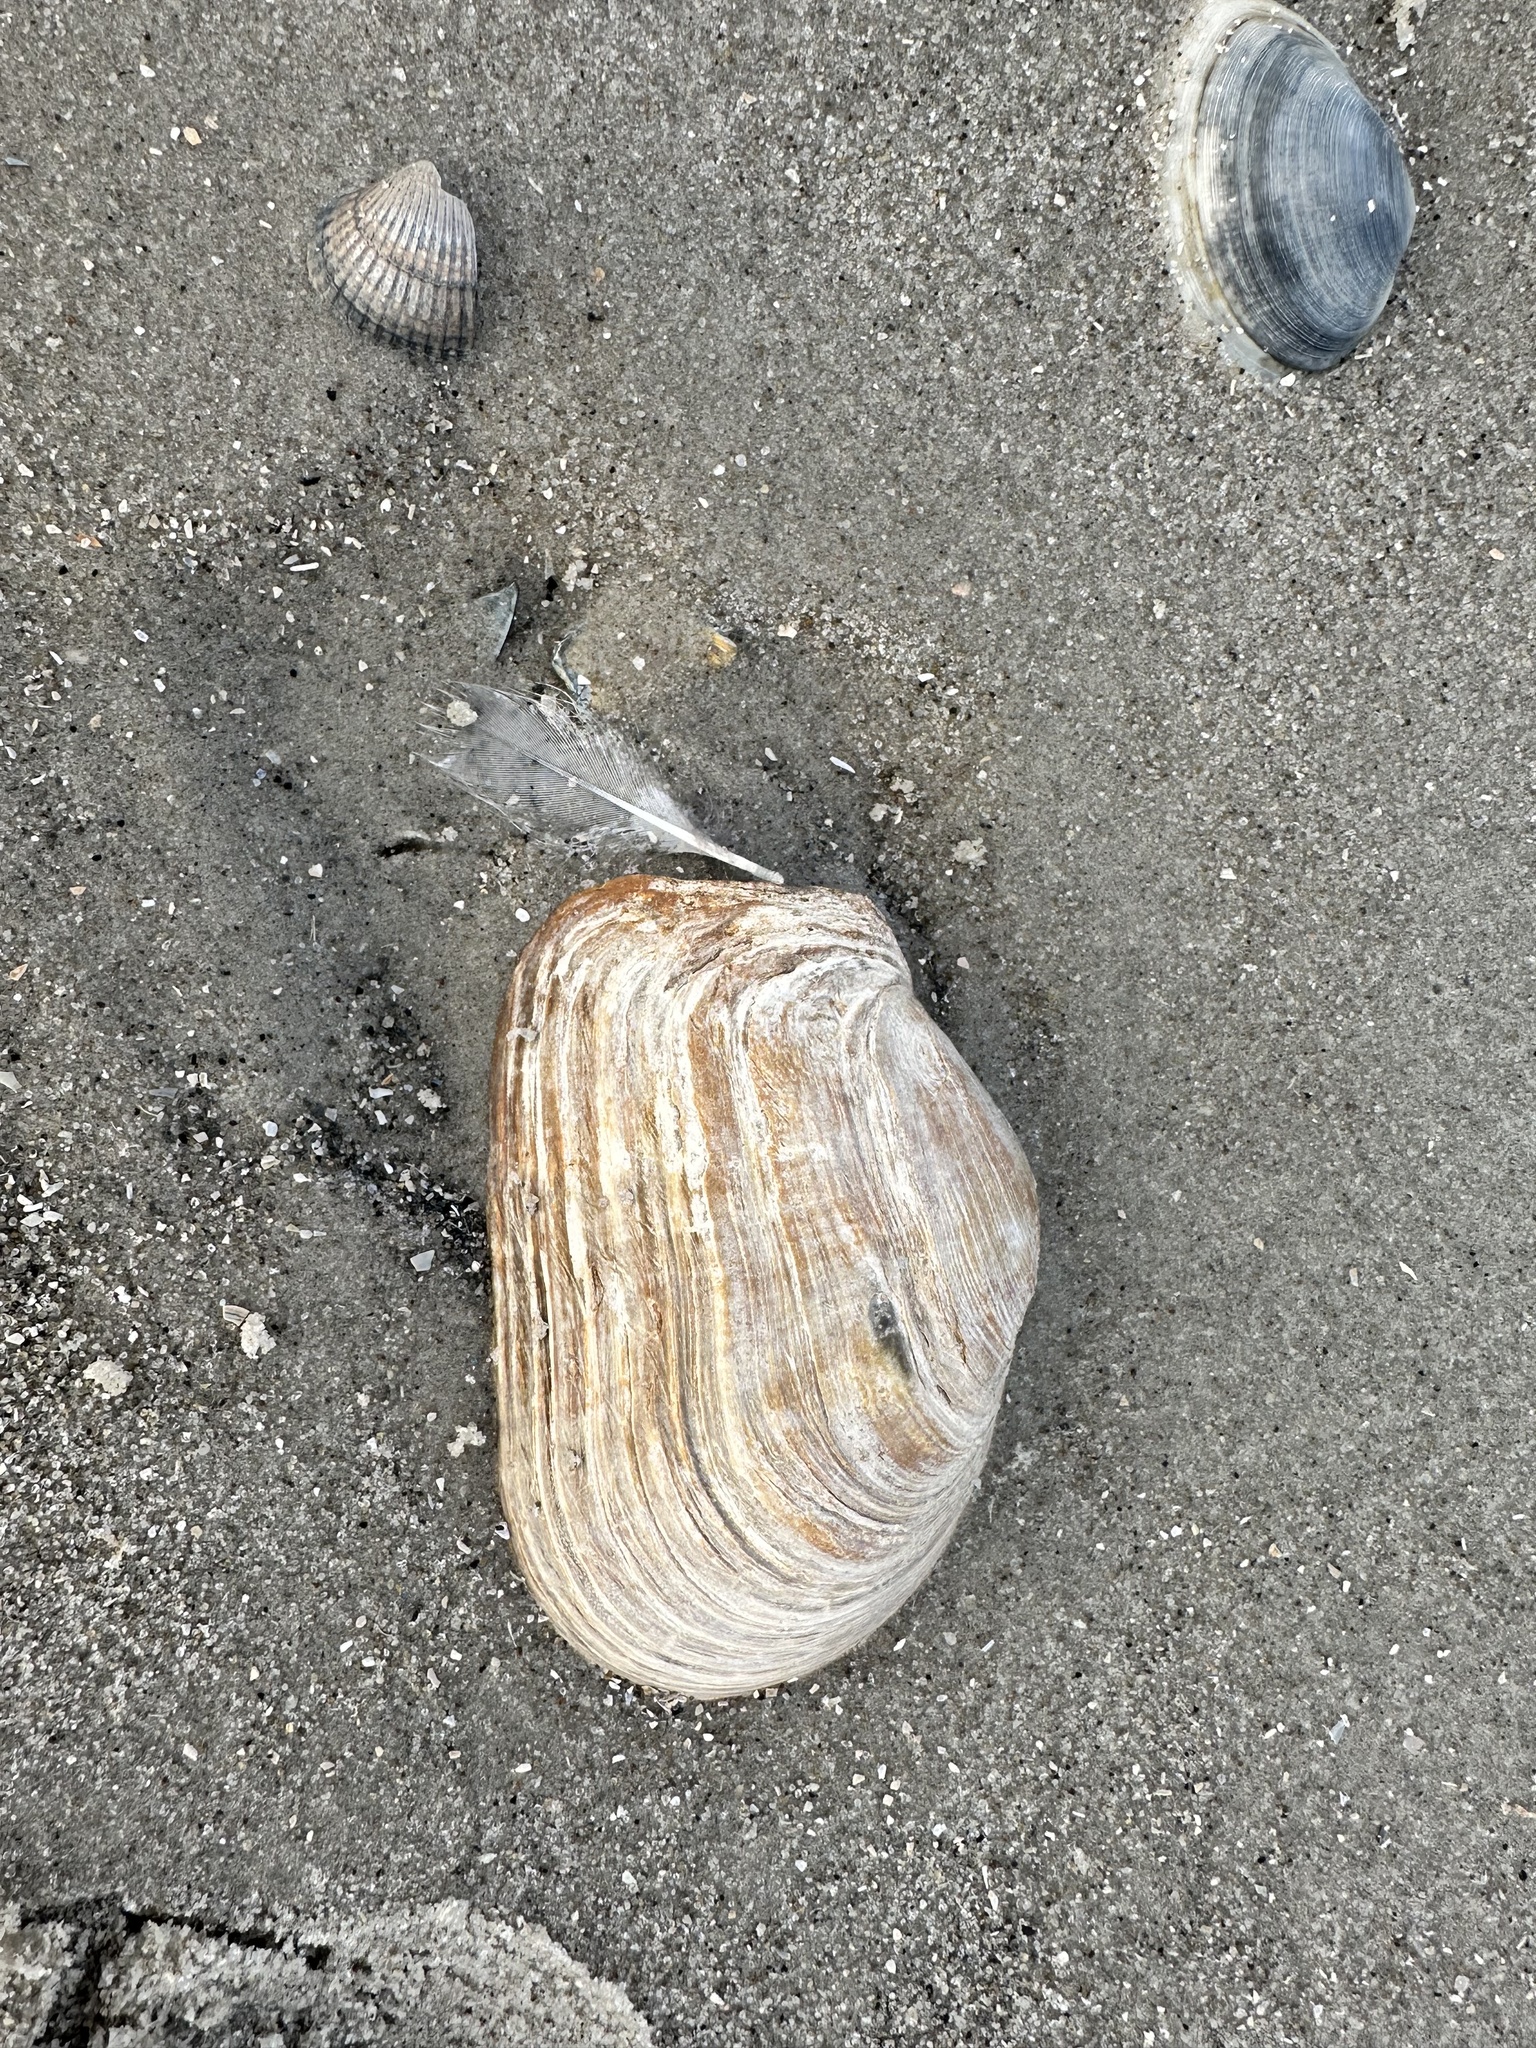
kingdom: Animalia
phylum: Mollusca
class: Bivalvia
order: Myida
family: Myidae
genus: Mya
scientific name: Mya truncata
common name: Blunt gaper
